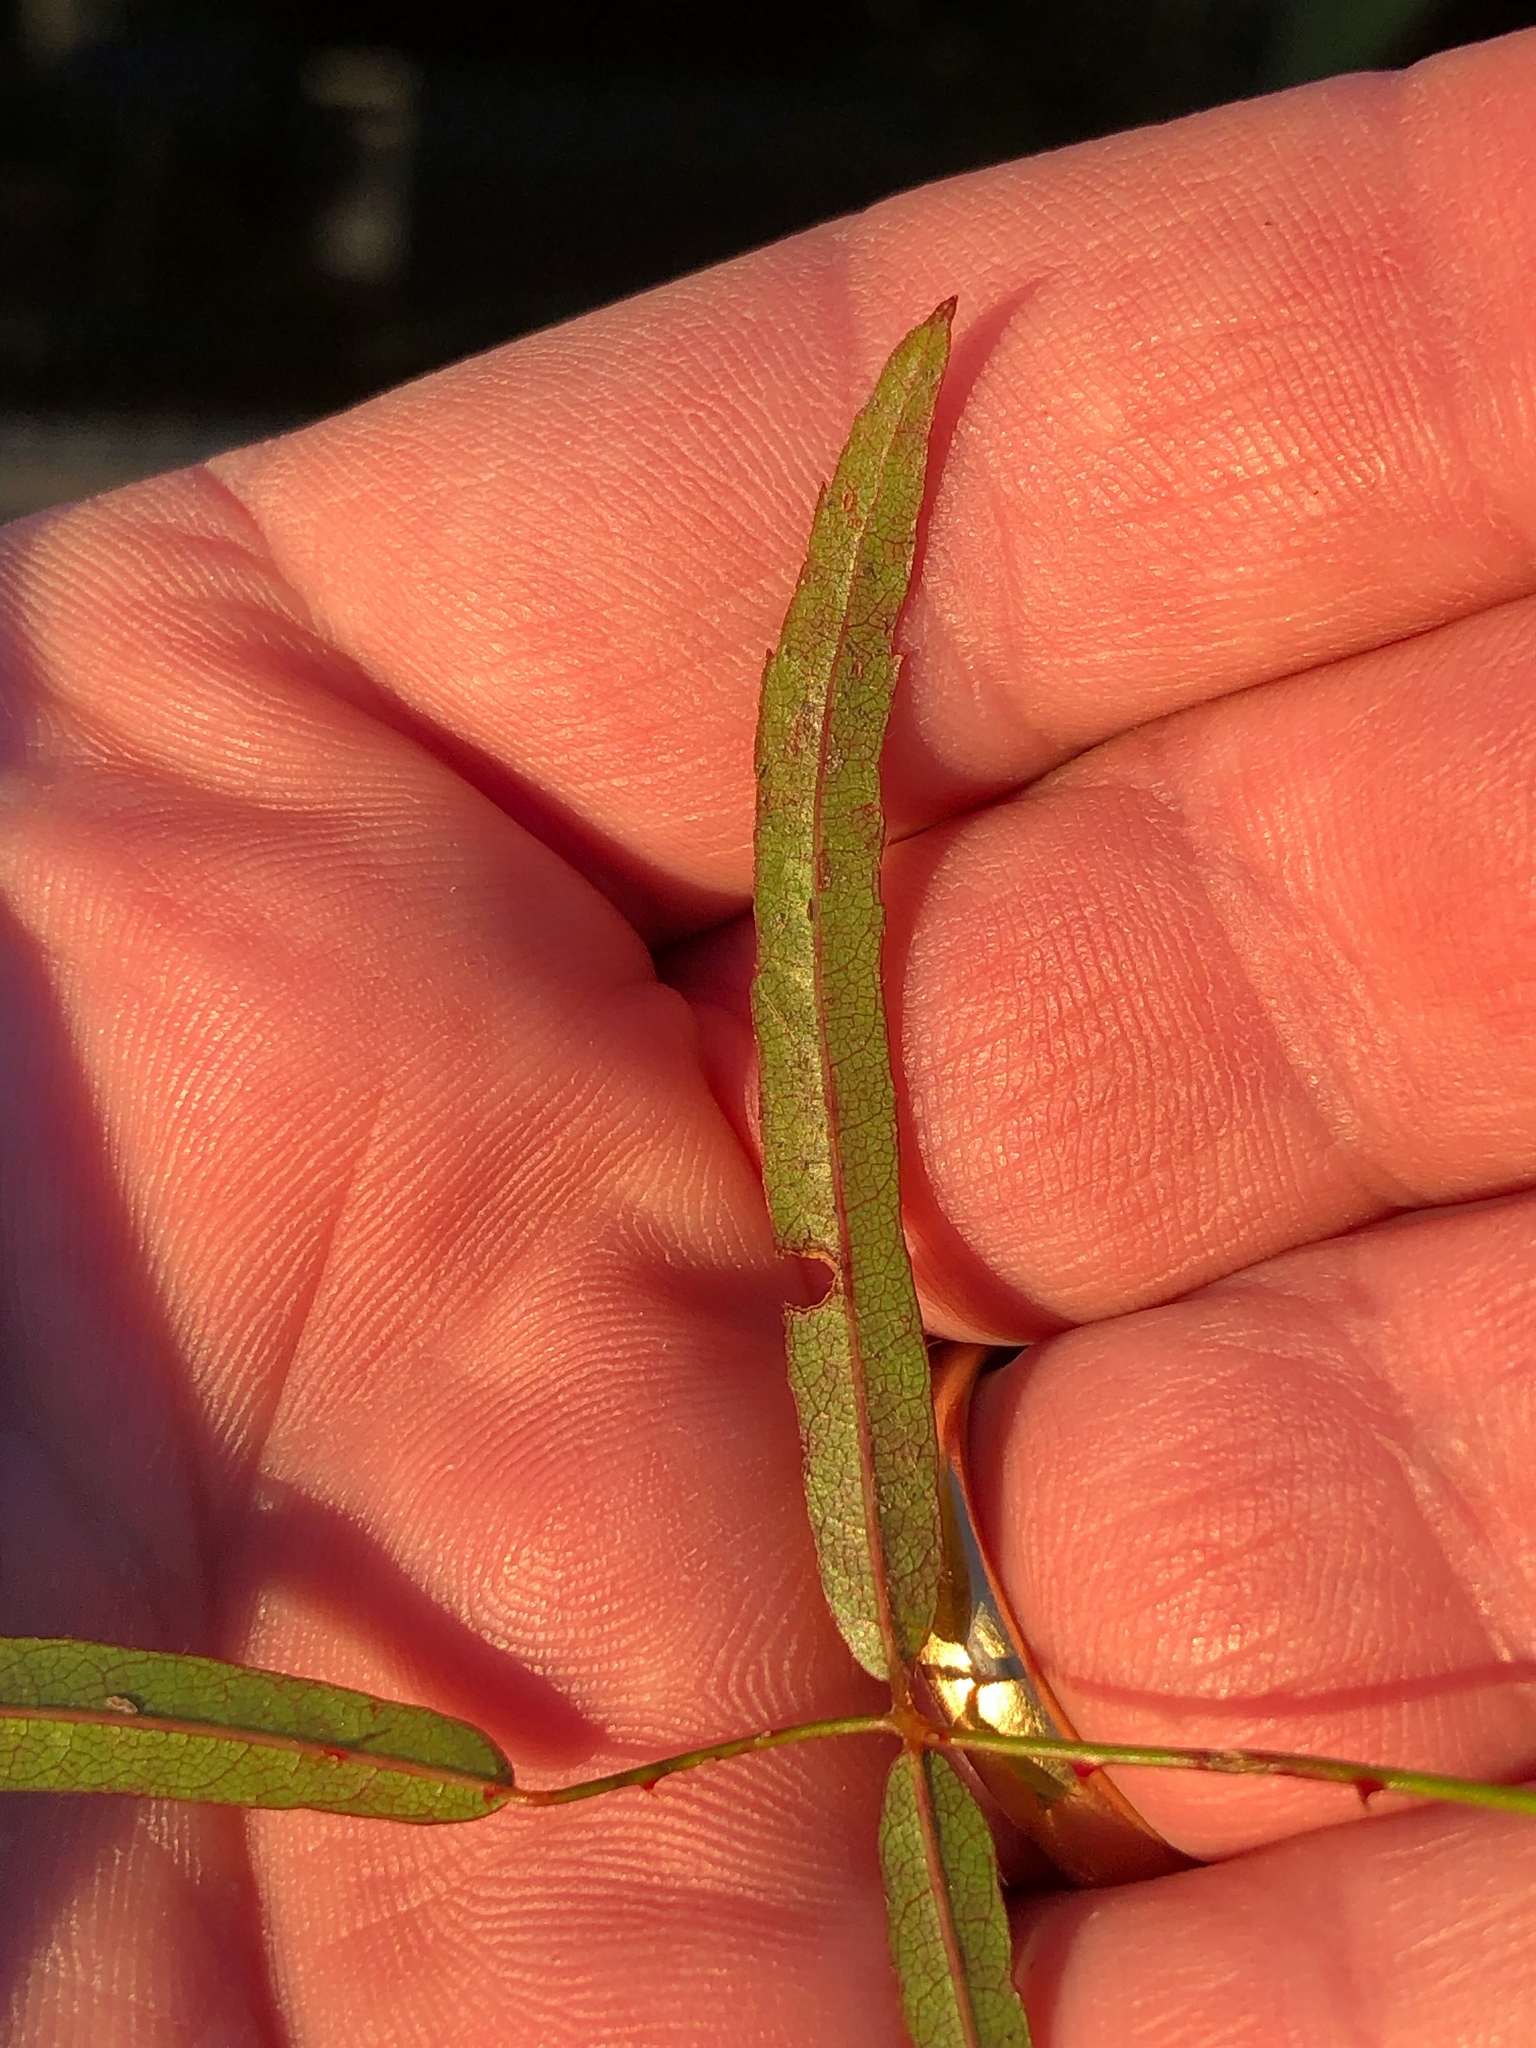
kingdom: Plantae
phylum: Tracheophyta
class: Magnoliopsida
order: Rosales
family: Rosaceae
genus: Rubus
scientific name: Rubus schmidelioides
